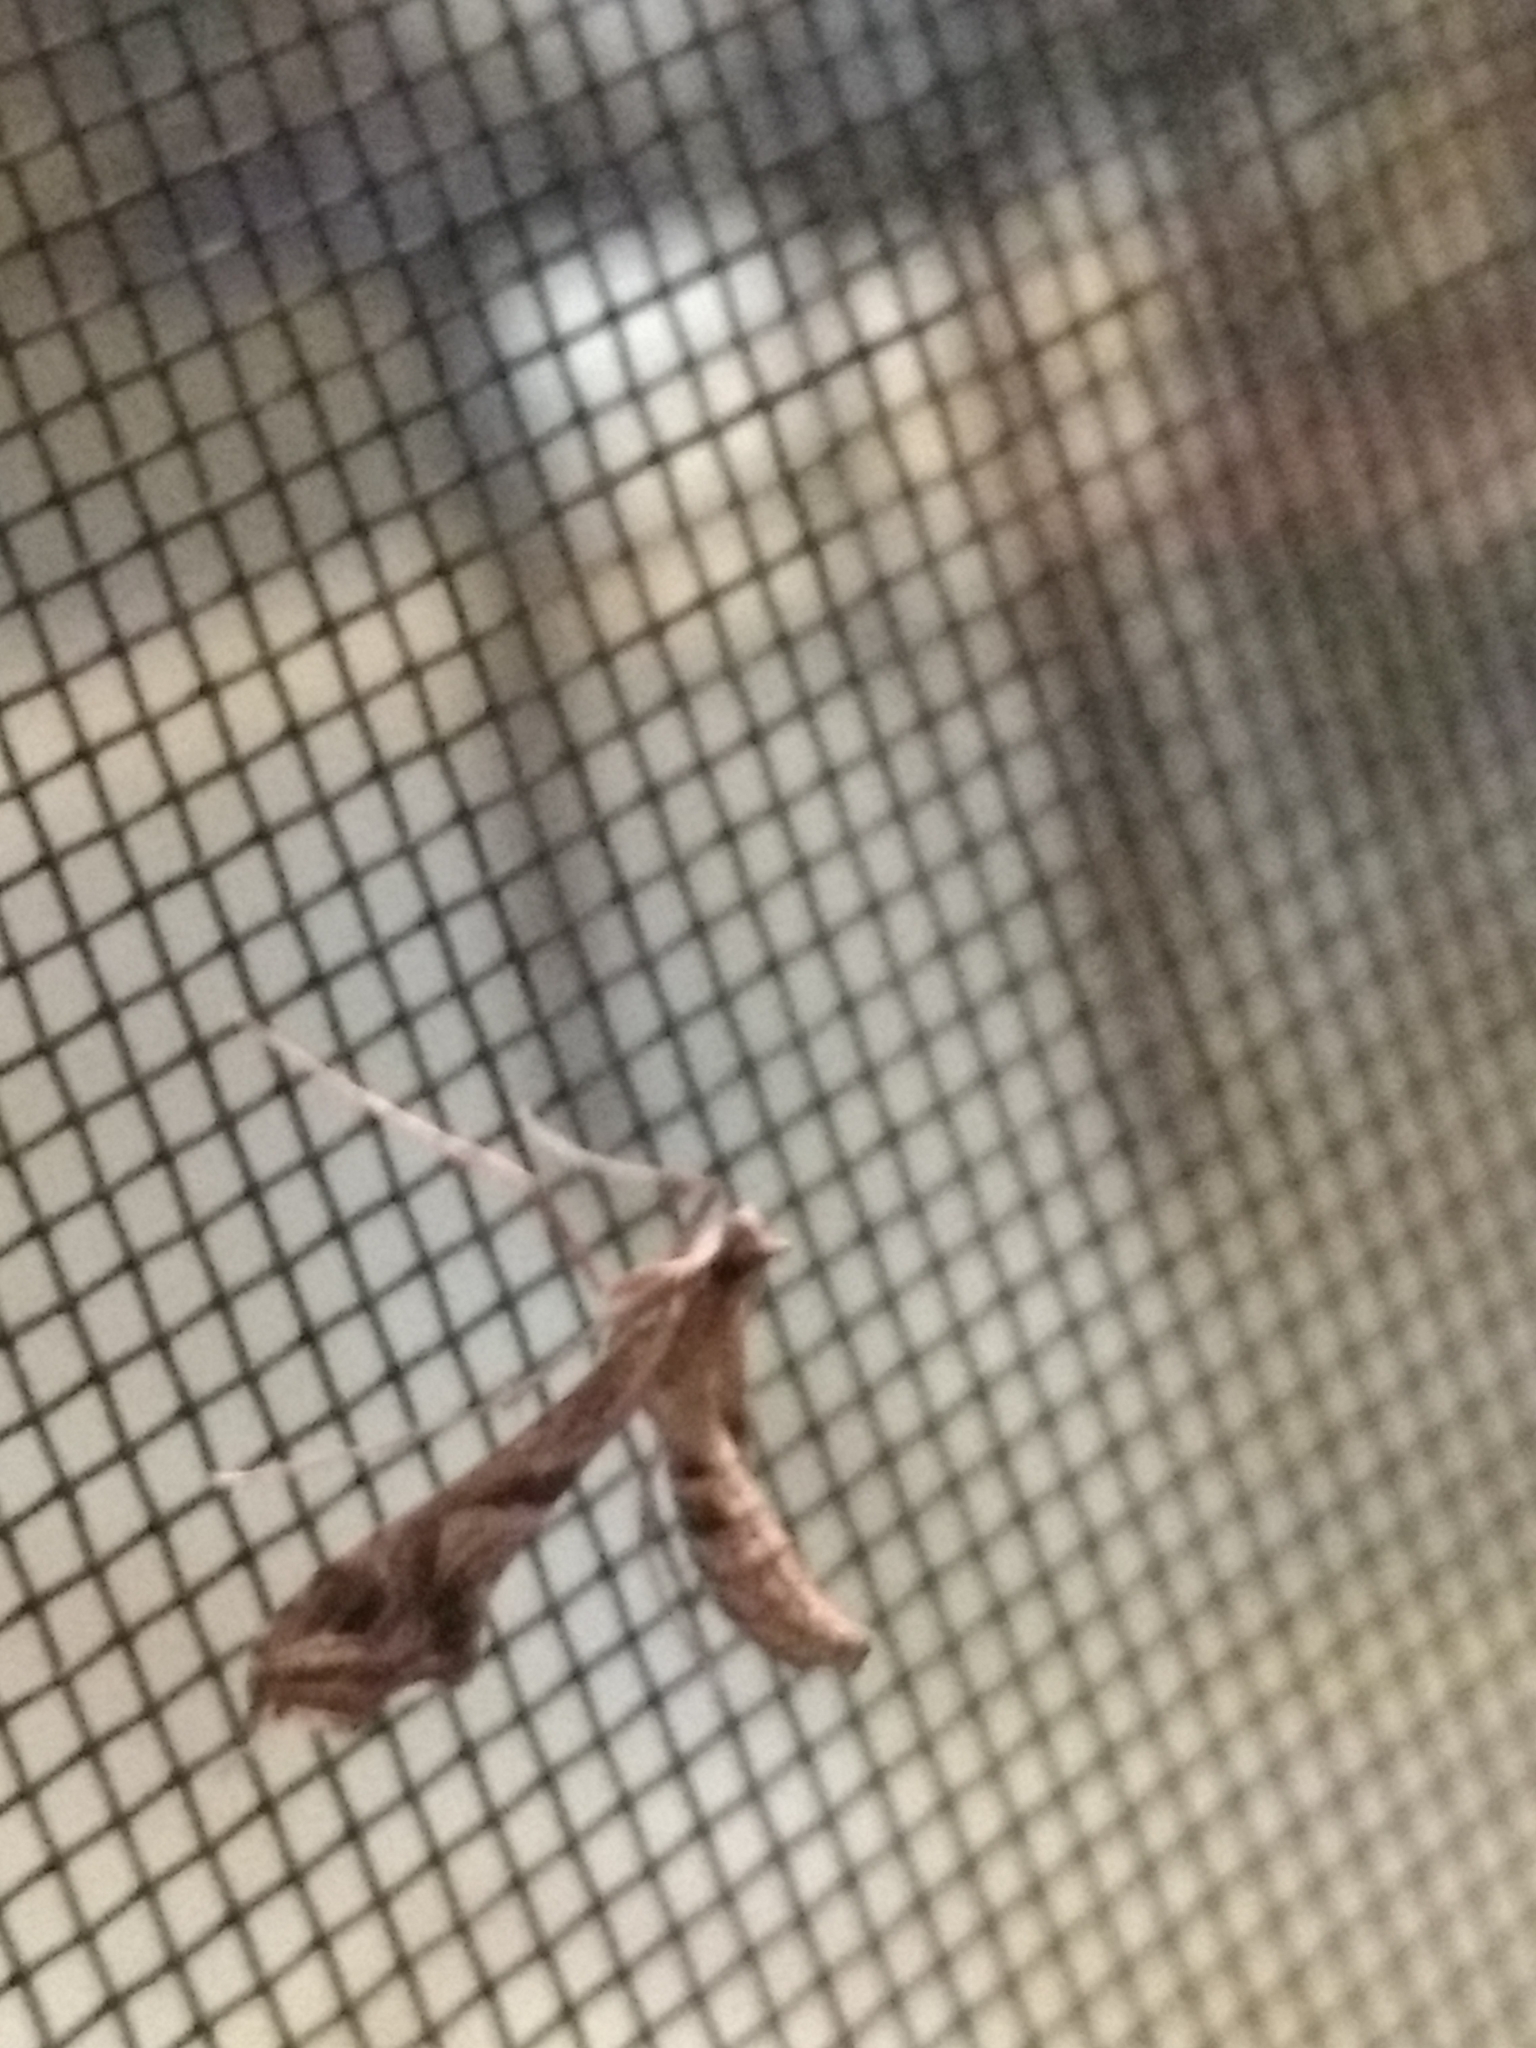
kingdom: Animalia
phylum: Arthropoda
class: Insecta
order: Lepidoptera
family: Crambidae
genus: Lineodes
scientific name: Lineodes integra
